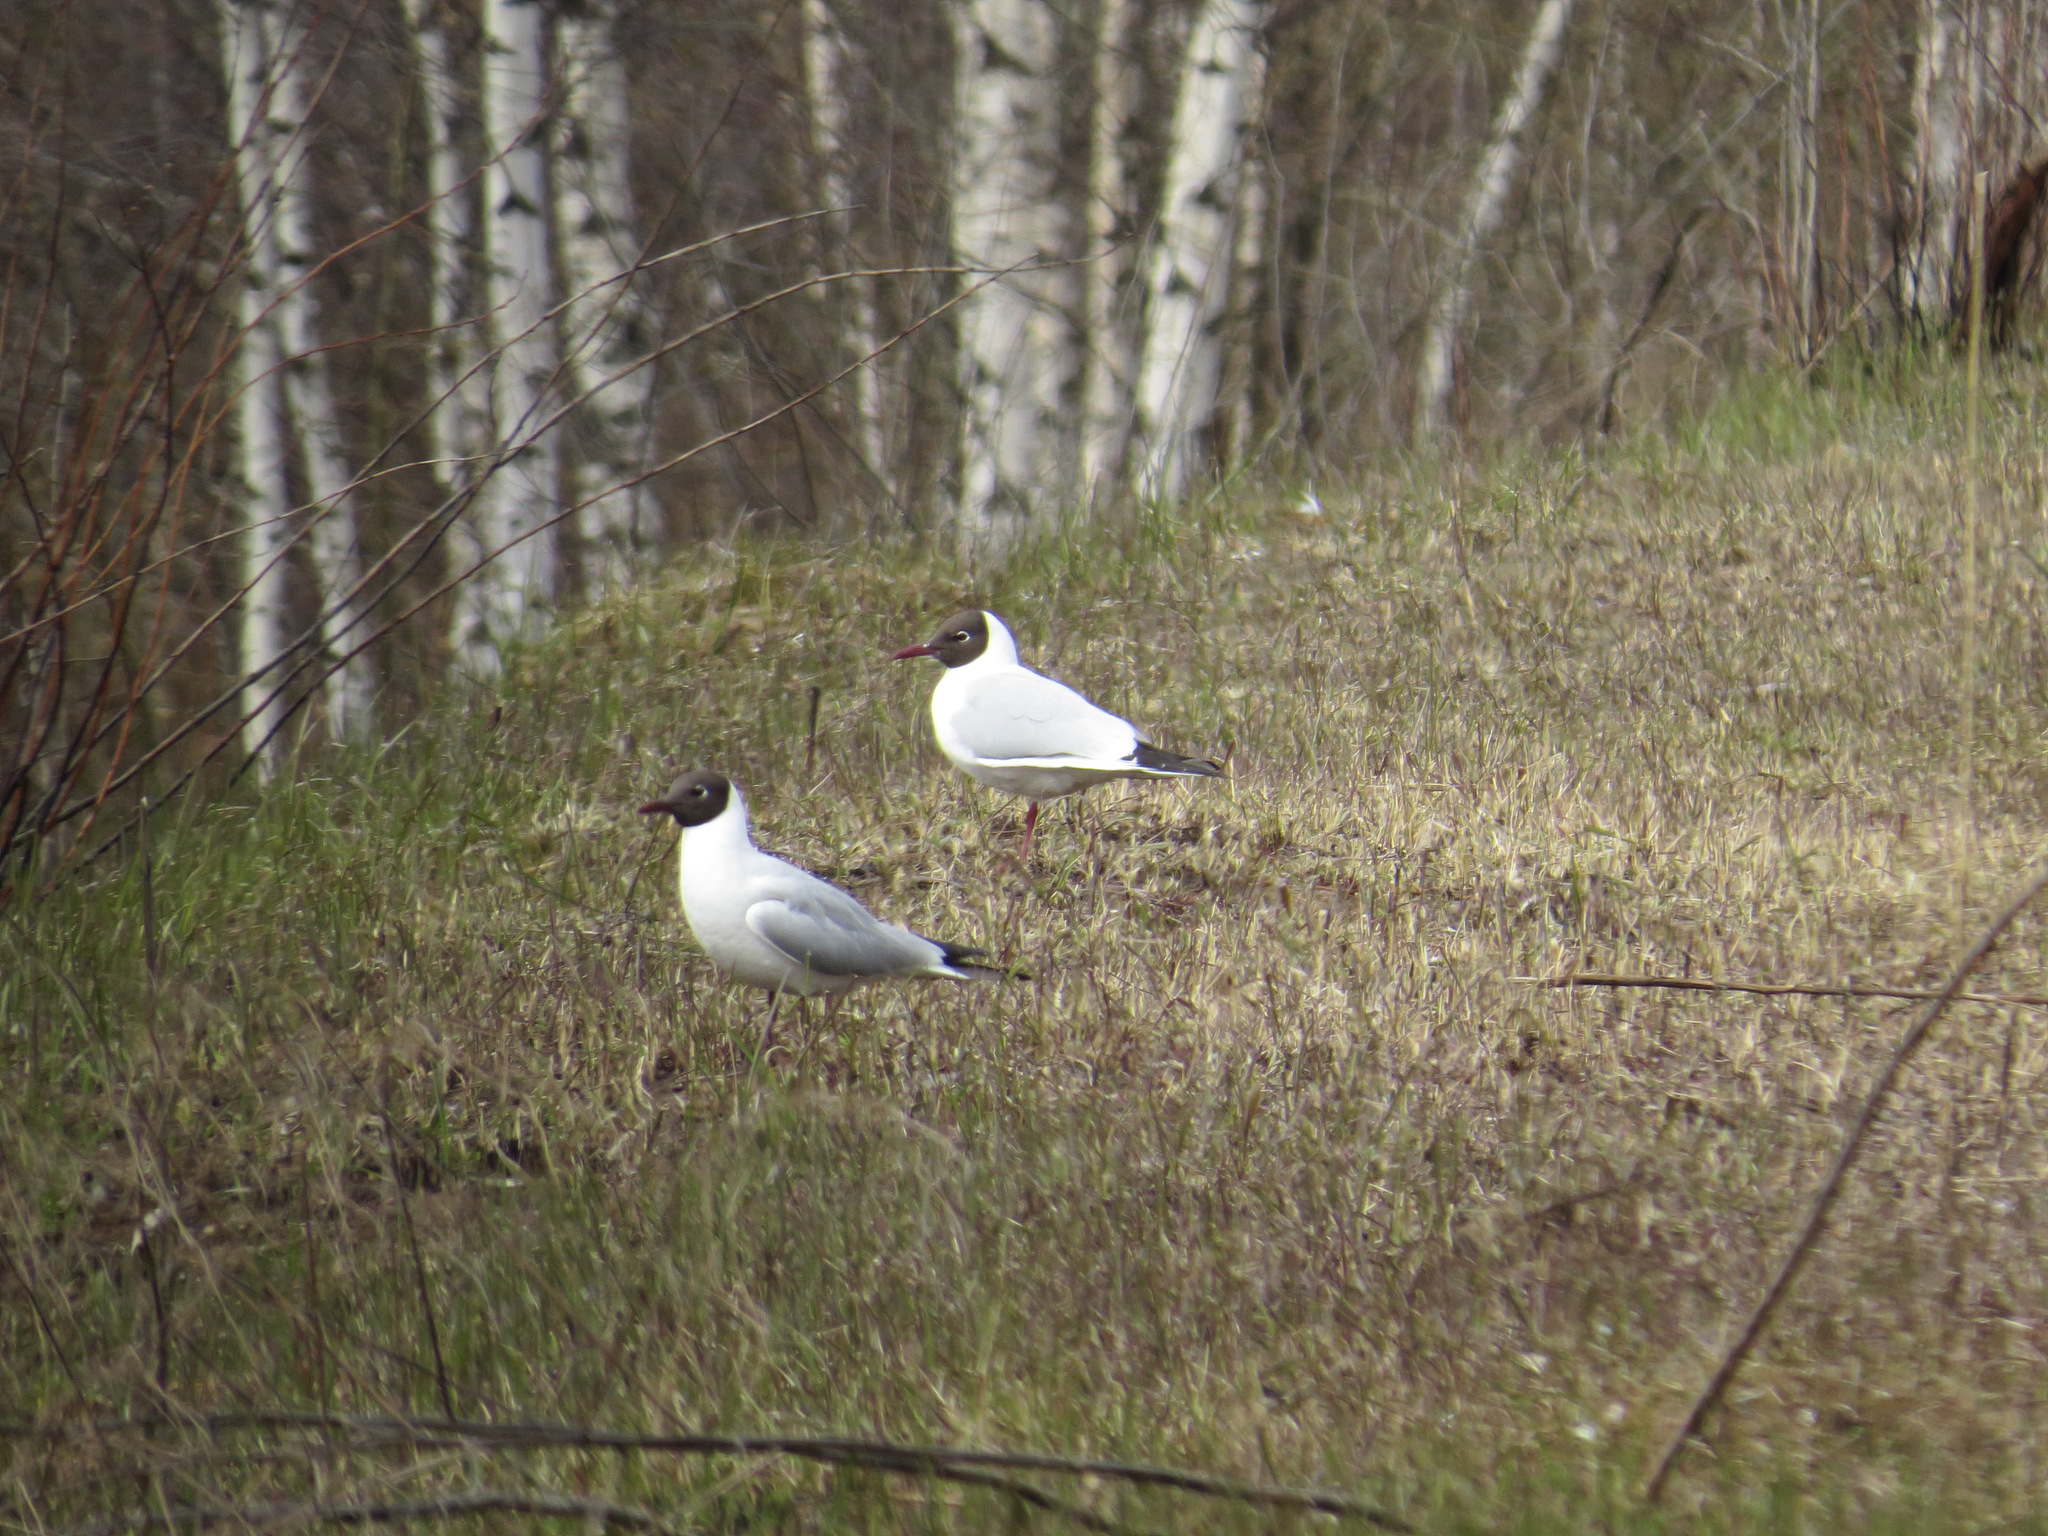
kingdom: Animalia
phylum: Chordata
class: Aves
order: Charadriiformes
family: Laridae
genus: Chroicocephalus
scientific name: Chroicocephalus ridibundus
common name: Black-headed gull
